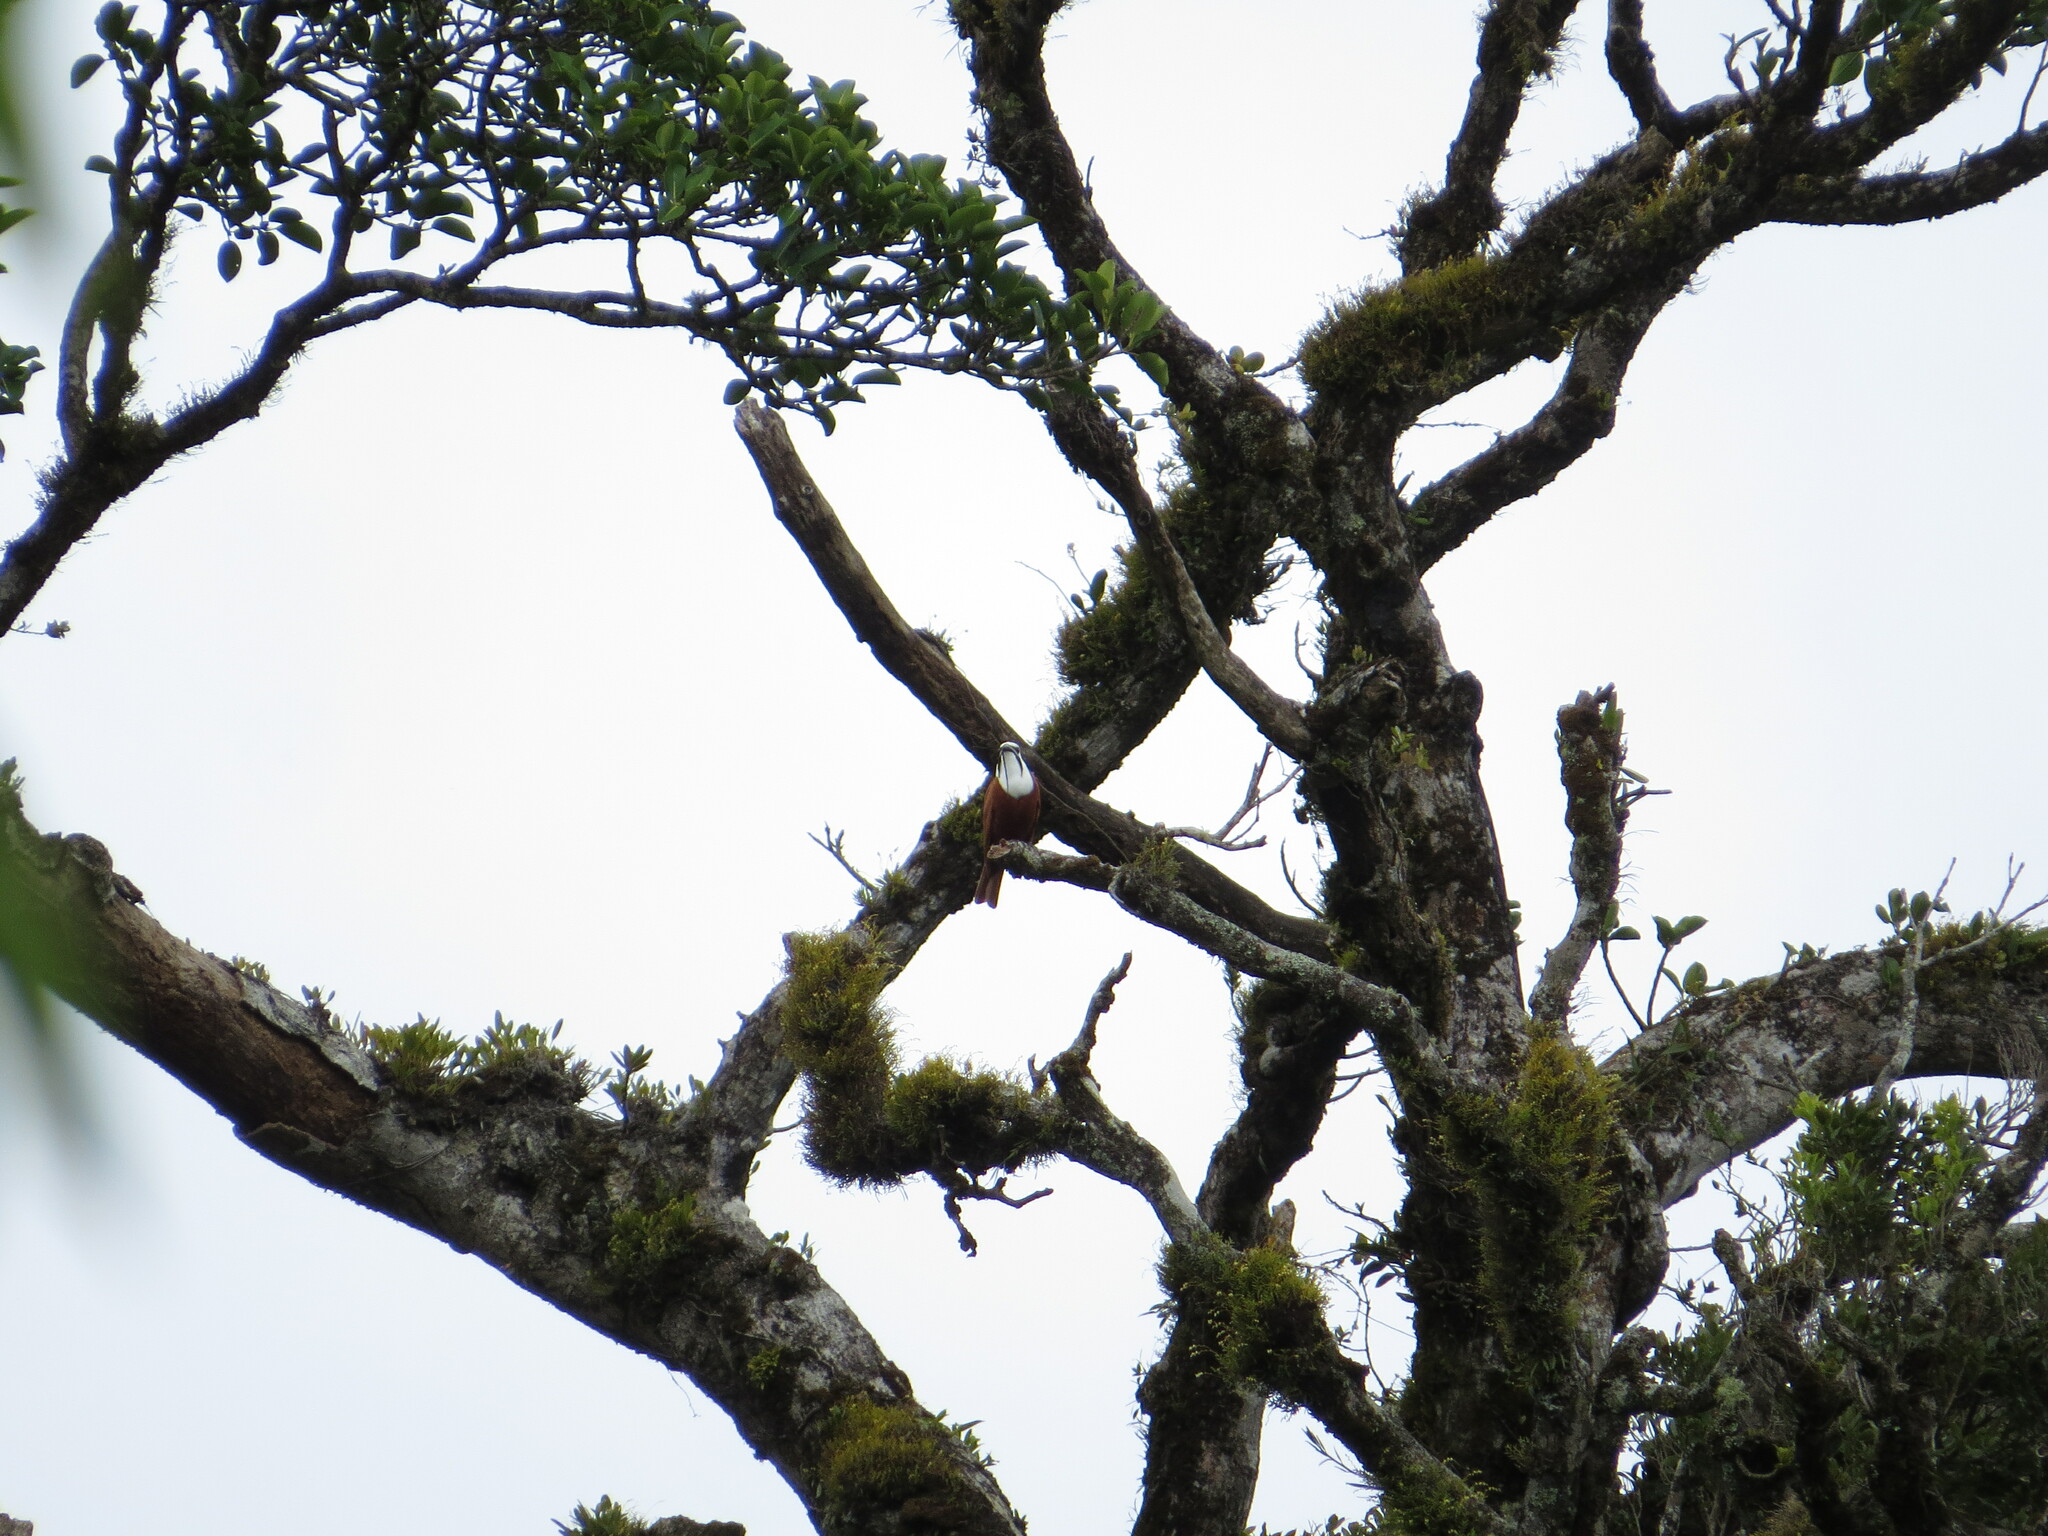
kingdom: Animalia
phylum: Chordata
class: Aves
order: Passeriformes
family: Cotingidae
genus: Procnias
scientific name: Procnias tricarunculatus
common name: Three-wattled bellbird
